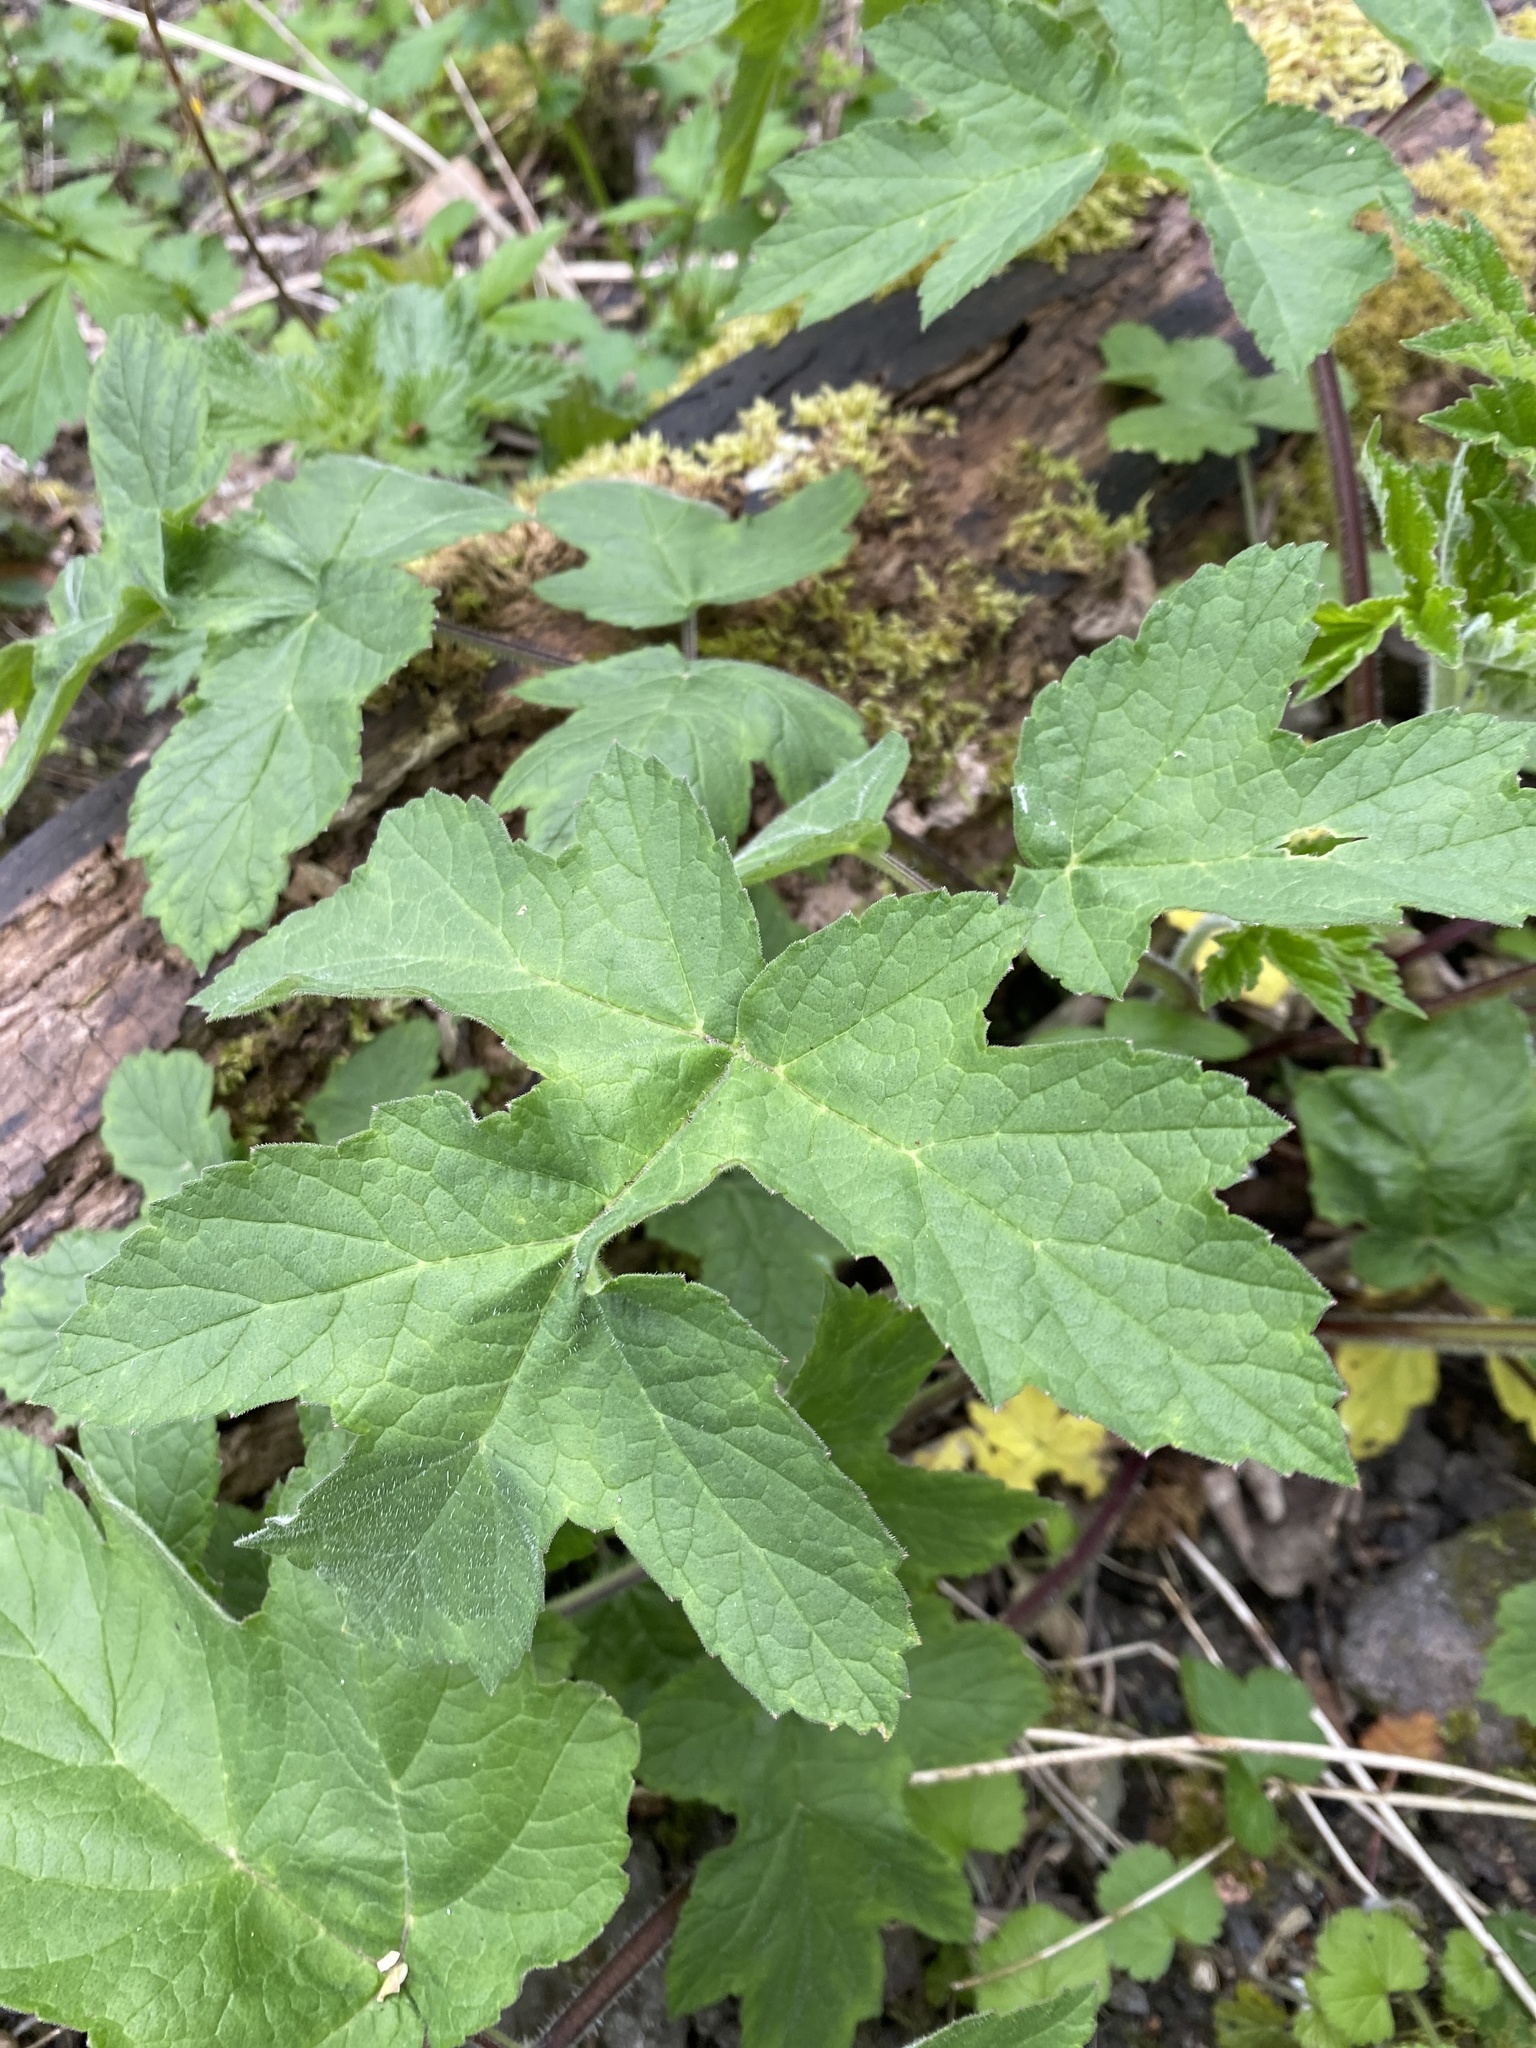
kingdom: Plantae
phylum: Tracheophyta
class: Magnoliopsida
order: Apiales
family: Apiaceae
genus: Heracleum
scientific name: Heracleum sphondylium
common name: Hogweed
